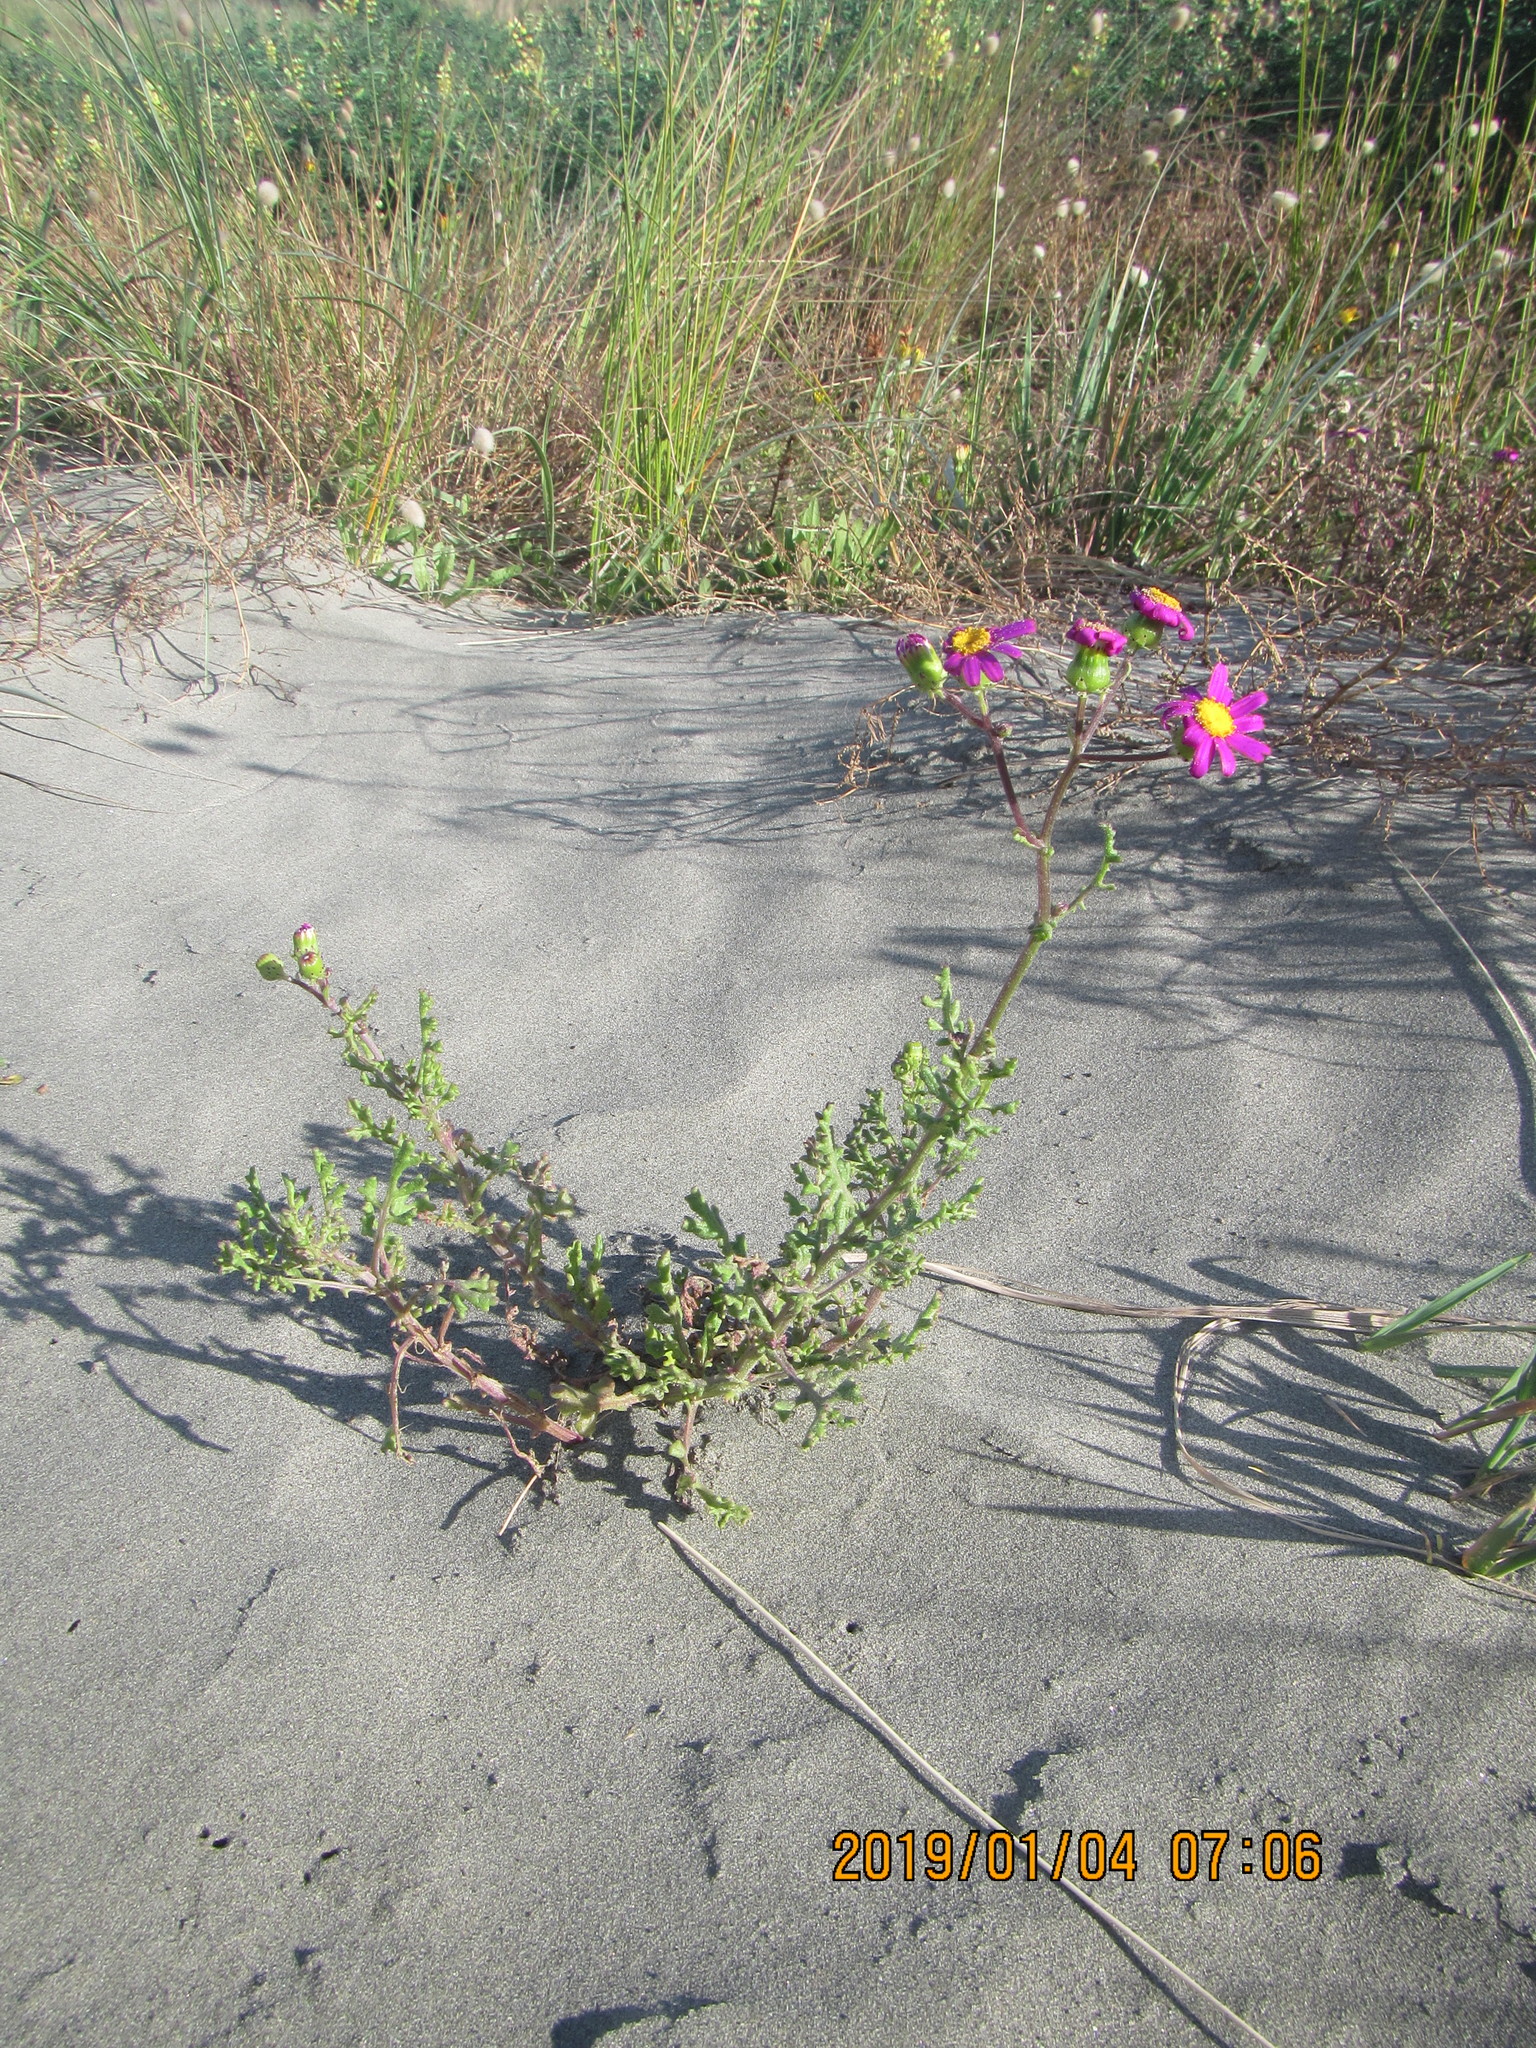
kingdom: Plantae
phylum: Tracheophyta
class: Magnoliopsida
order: Asterales
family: Asteraceae
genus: Senecio
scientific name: Senecio elegans
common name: Purple groundsel
